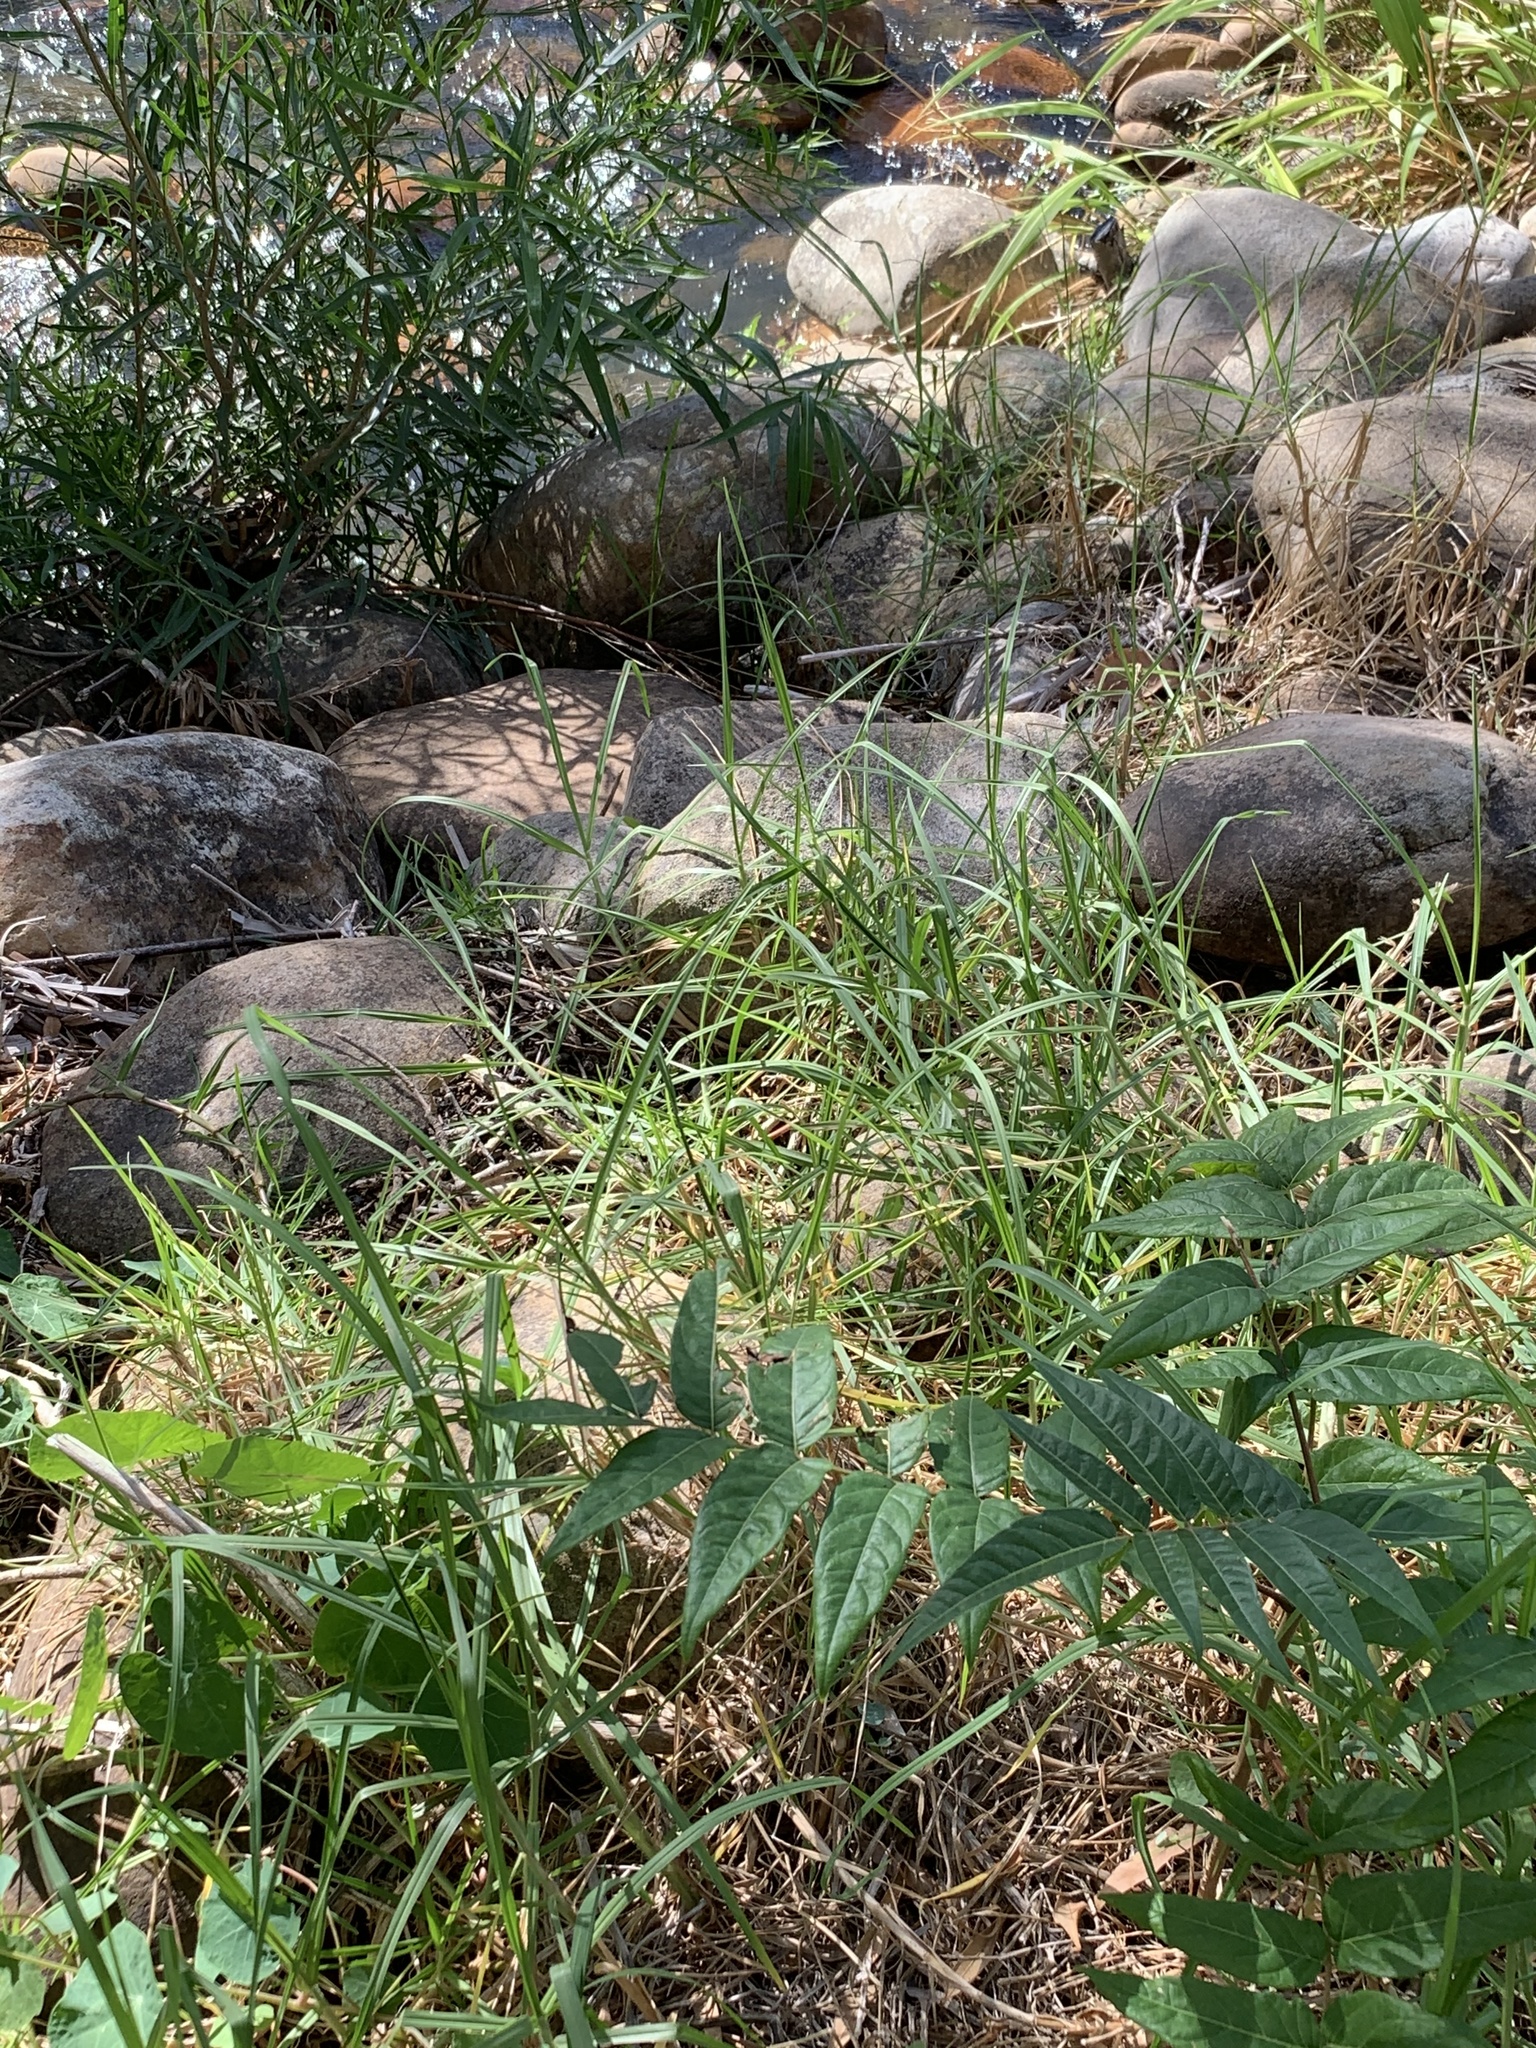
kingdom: Plantae
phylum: Tracheophyta
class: Magnoliopsida
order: Sapindales
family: Simaroubaceae
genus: Ailanthus
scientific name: Ailanthus altissima
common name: Tree-of-heaven
